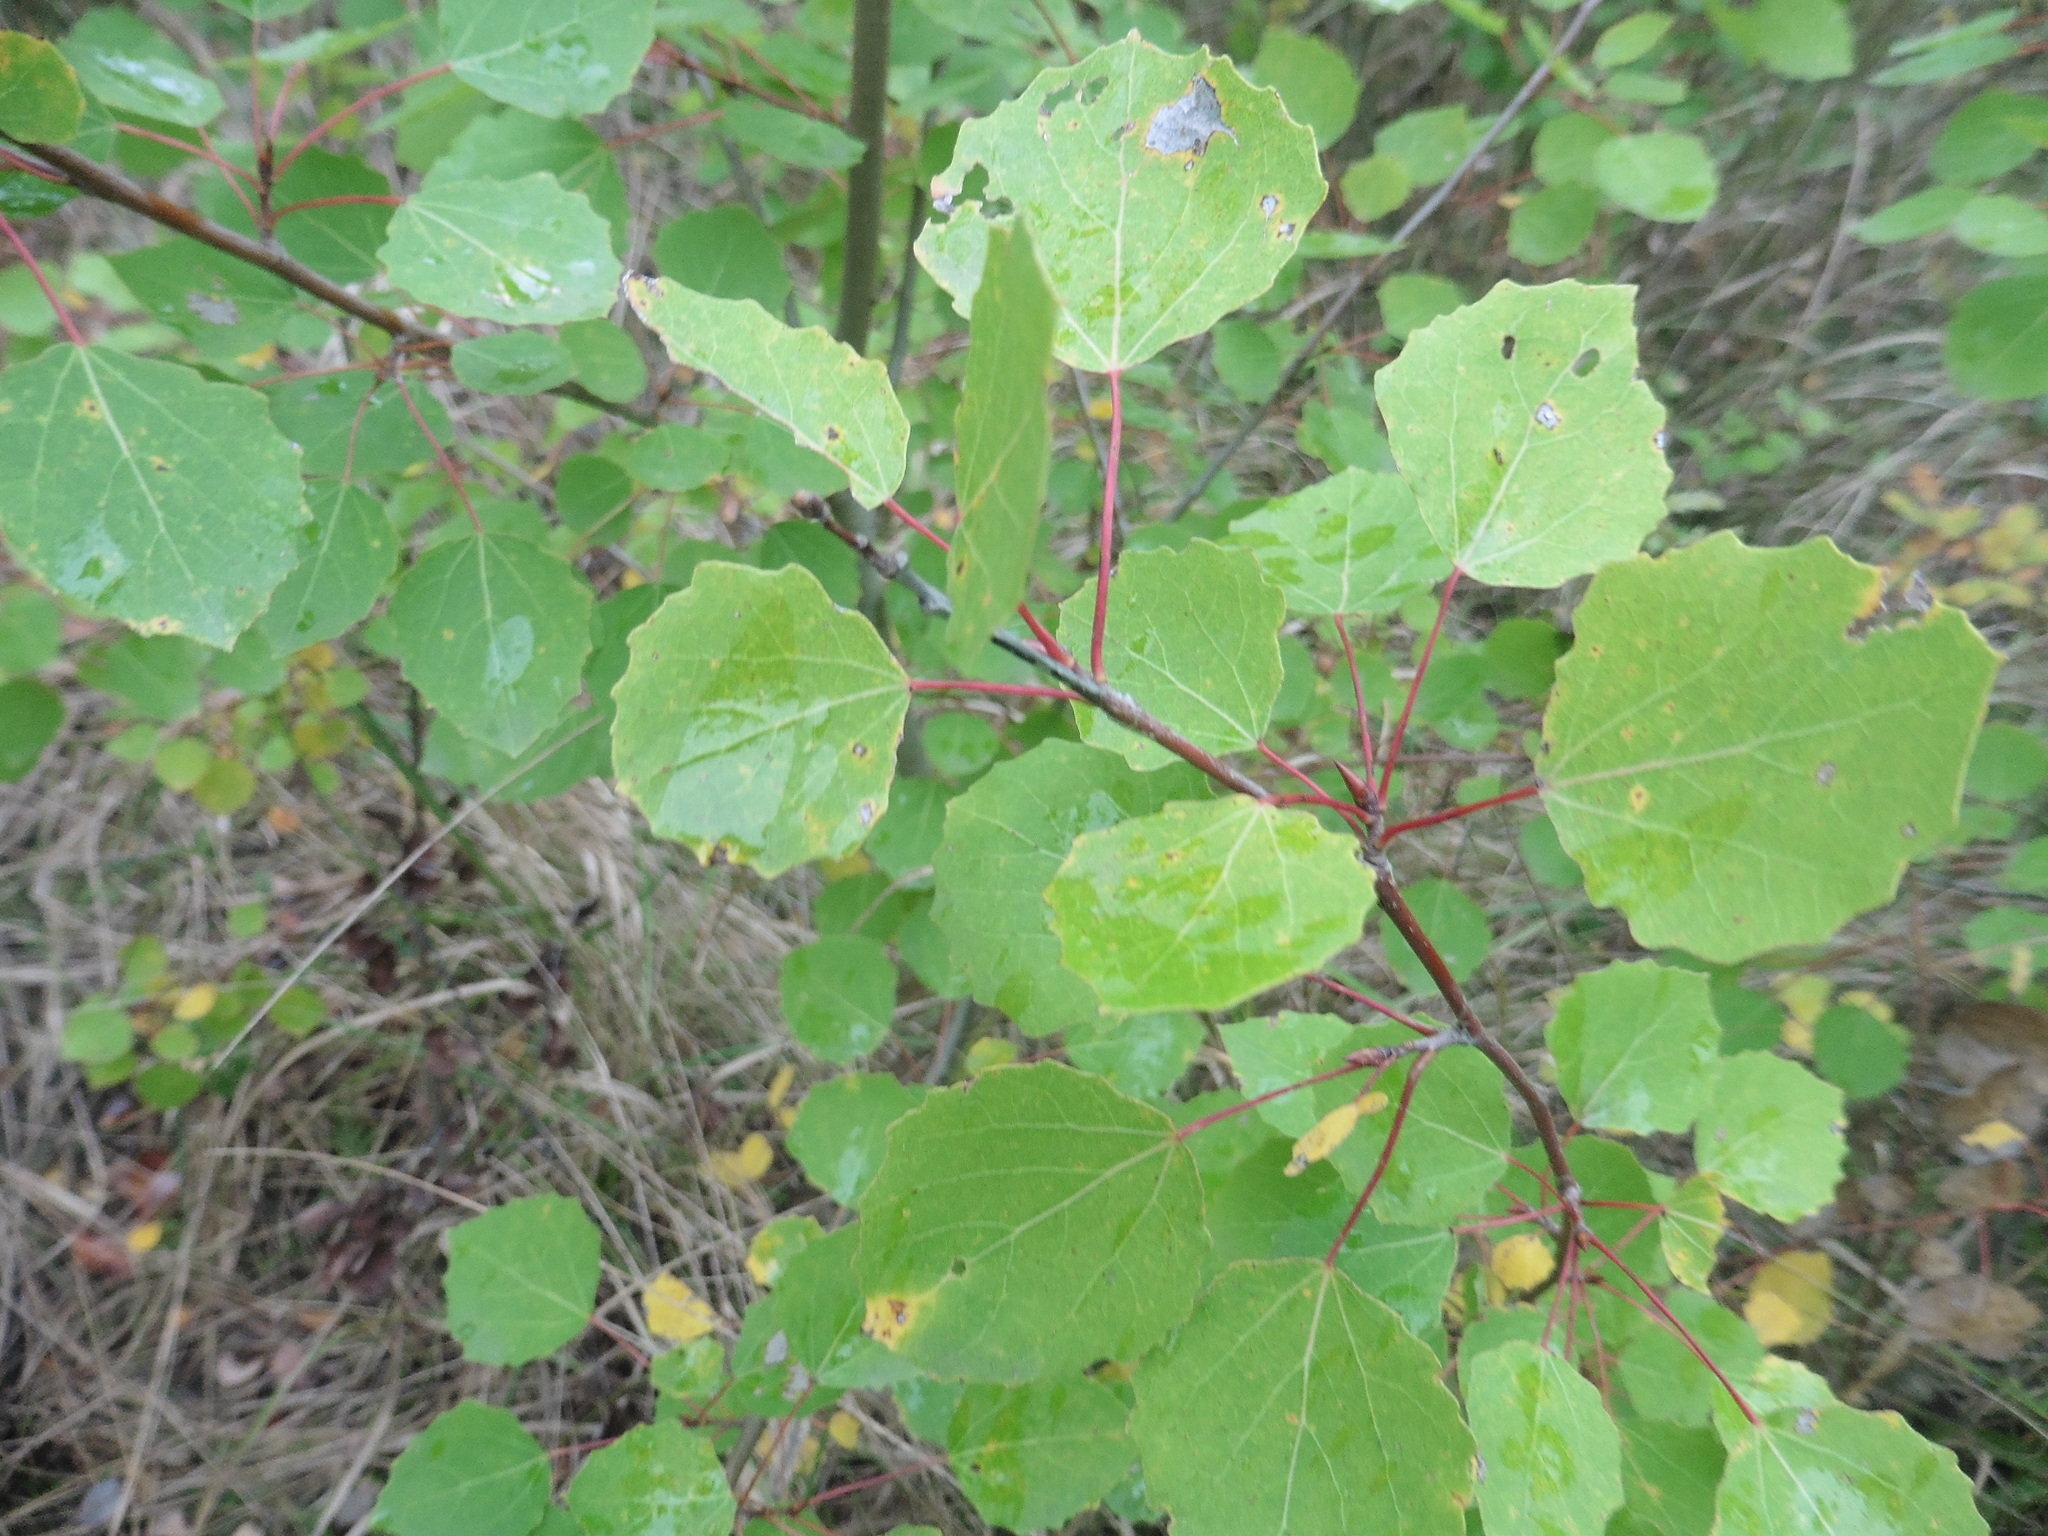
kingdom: Plantae
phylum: Tracheophyta
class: Magnoliopsida
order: Malpighiales
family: Salicaceae
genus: Populus
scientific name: Populus tremula
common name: European aspen
